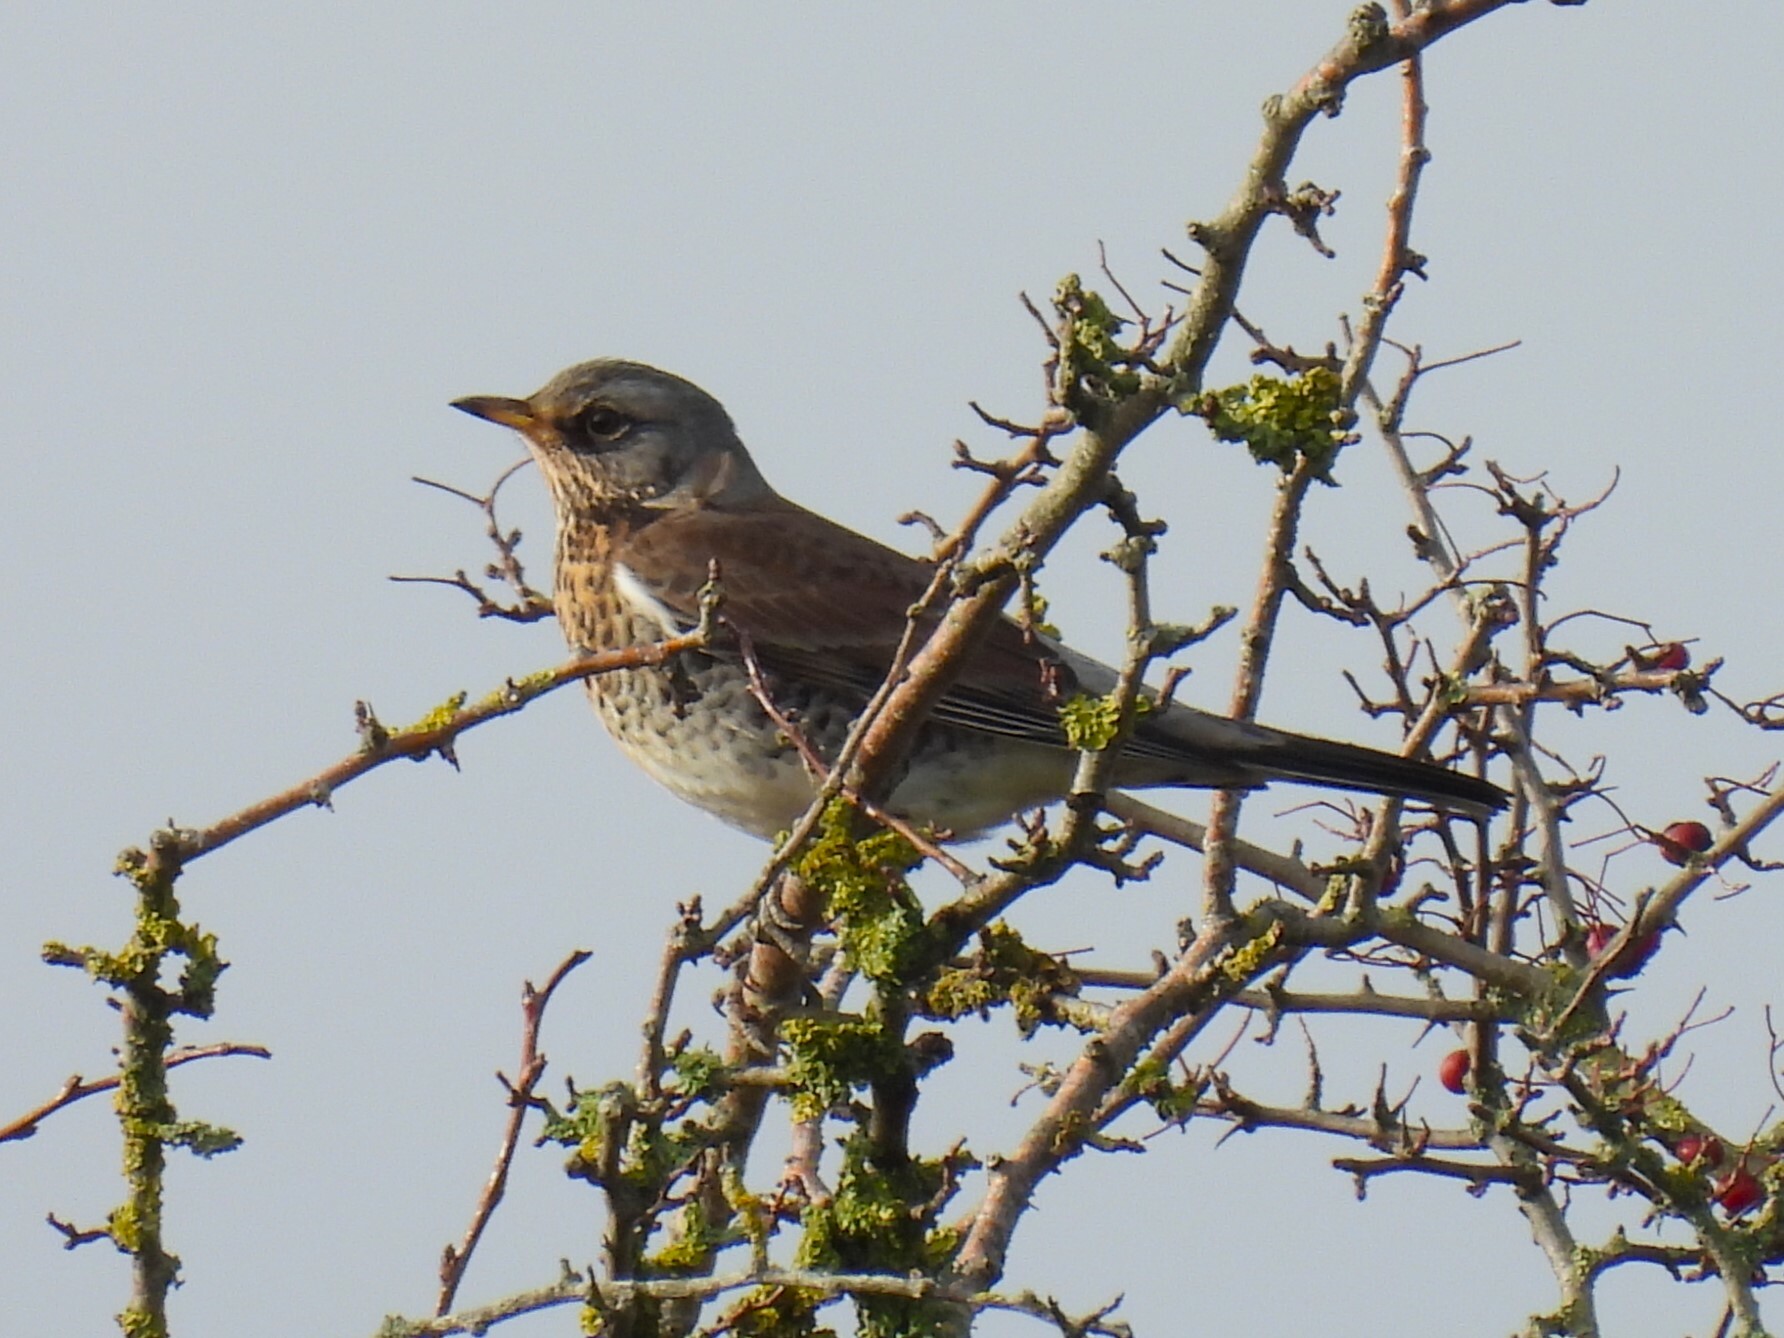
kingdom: Animalia
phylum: Chordata
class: Aves
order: Passeriformes
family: Turdidae
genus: Turdus
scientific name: Turdus pilaris
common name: Fieldfare
